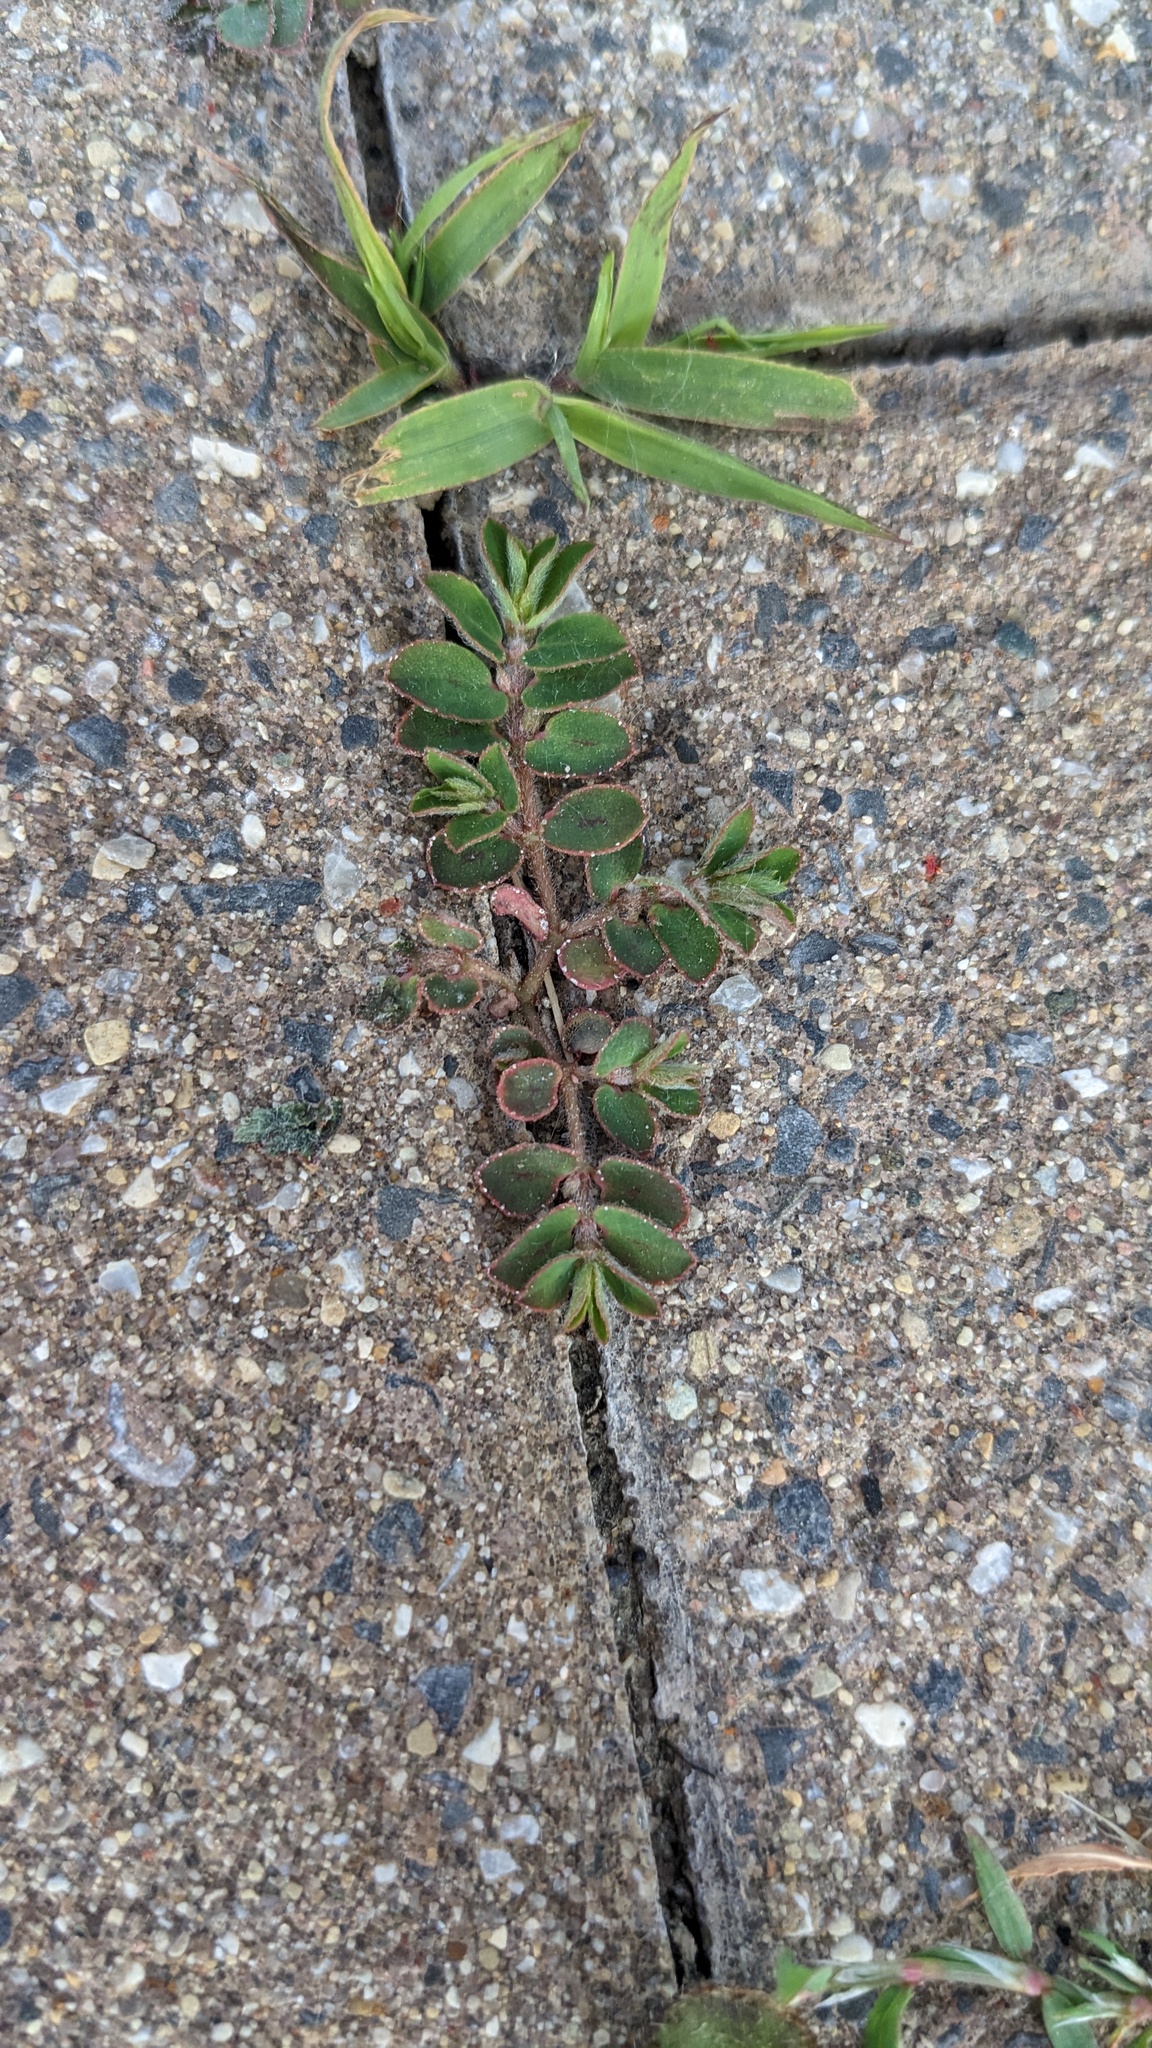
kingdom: Plantae
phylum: Tracheophyta
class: Magnoliopsida
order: Malpighiales
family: Euphorbiaceae
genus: Euphorbia
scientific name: Euphorbia maculata
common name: Spotted spurge
